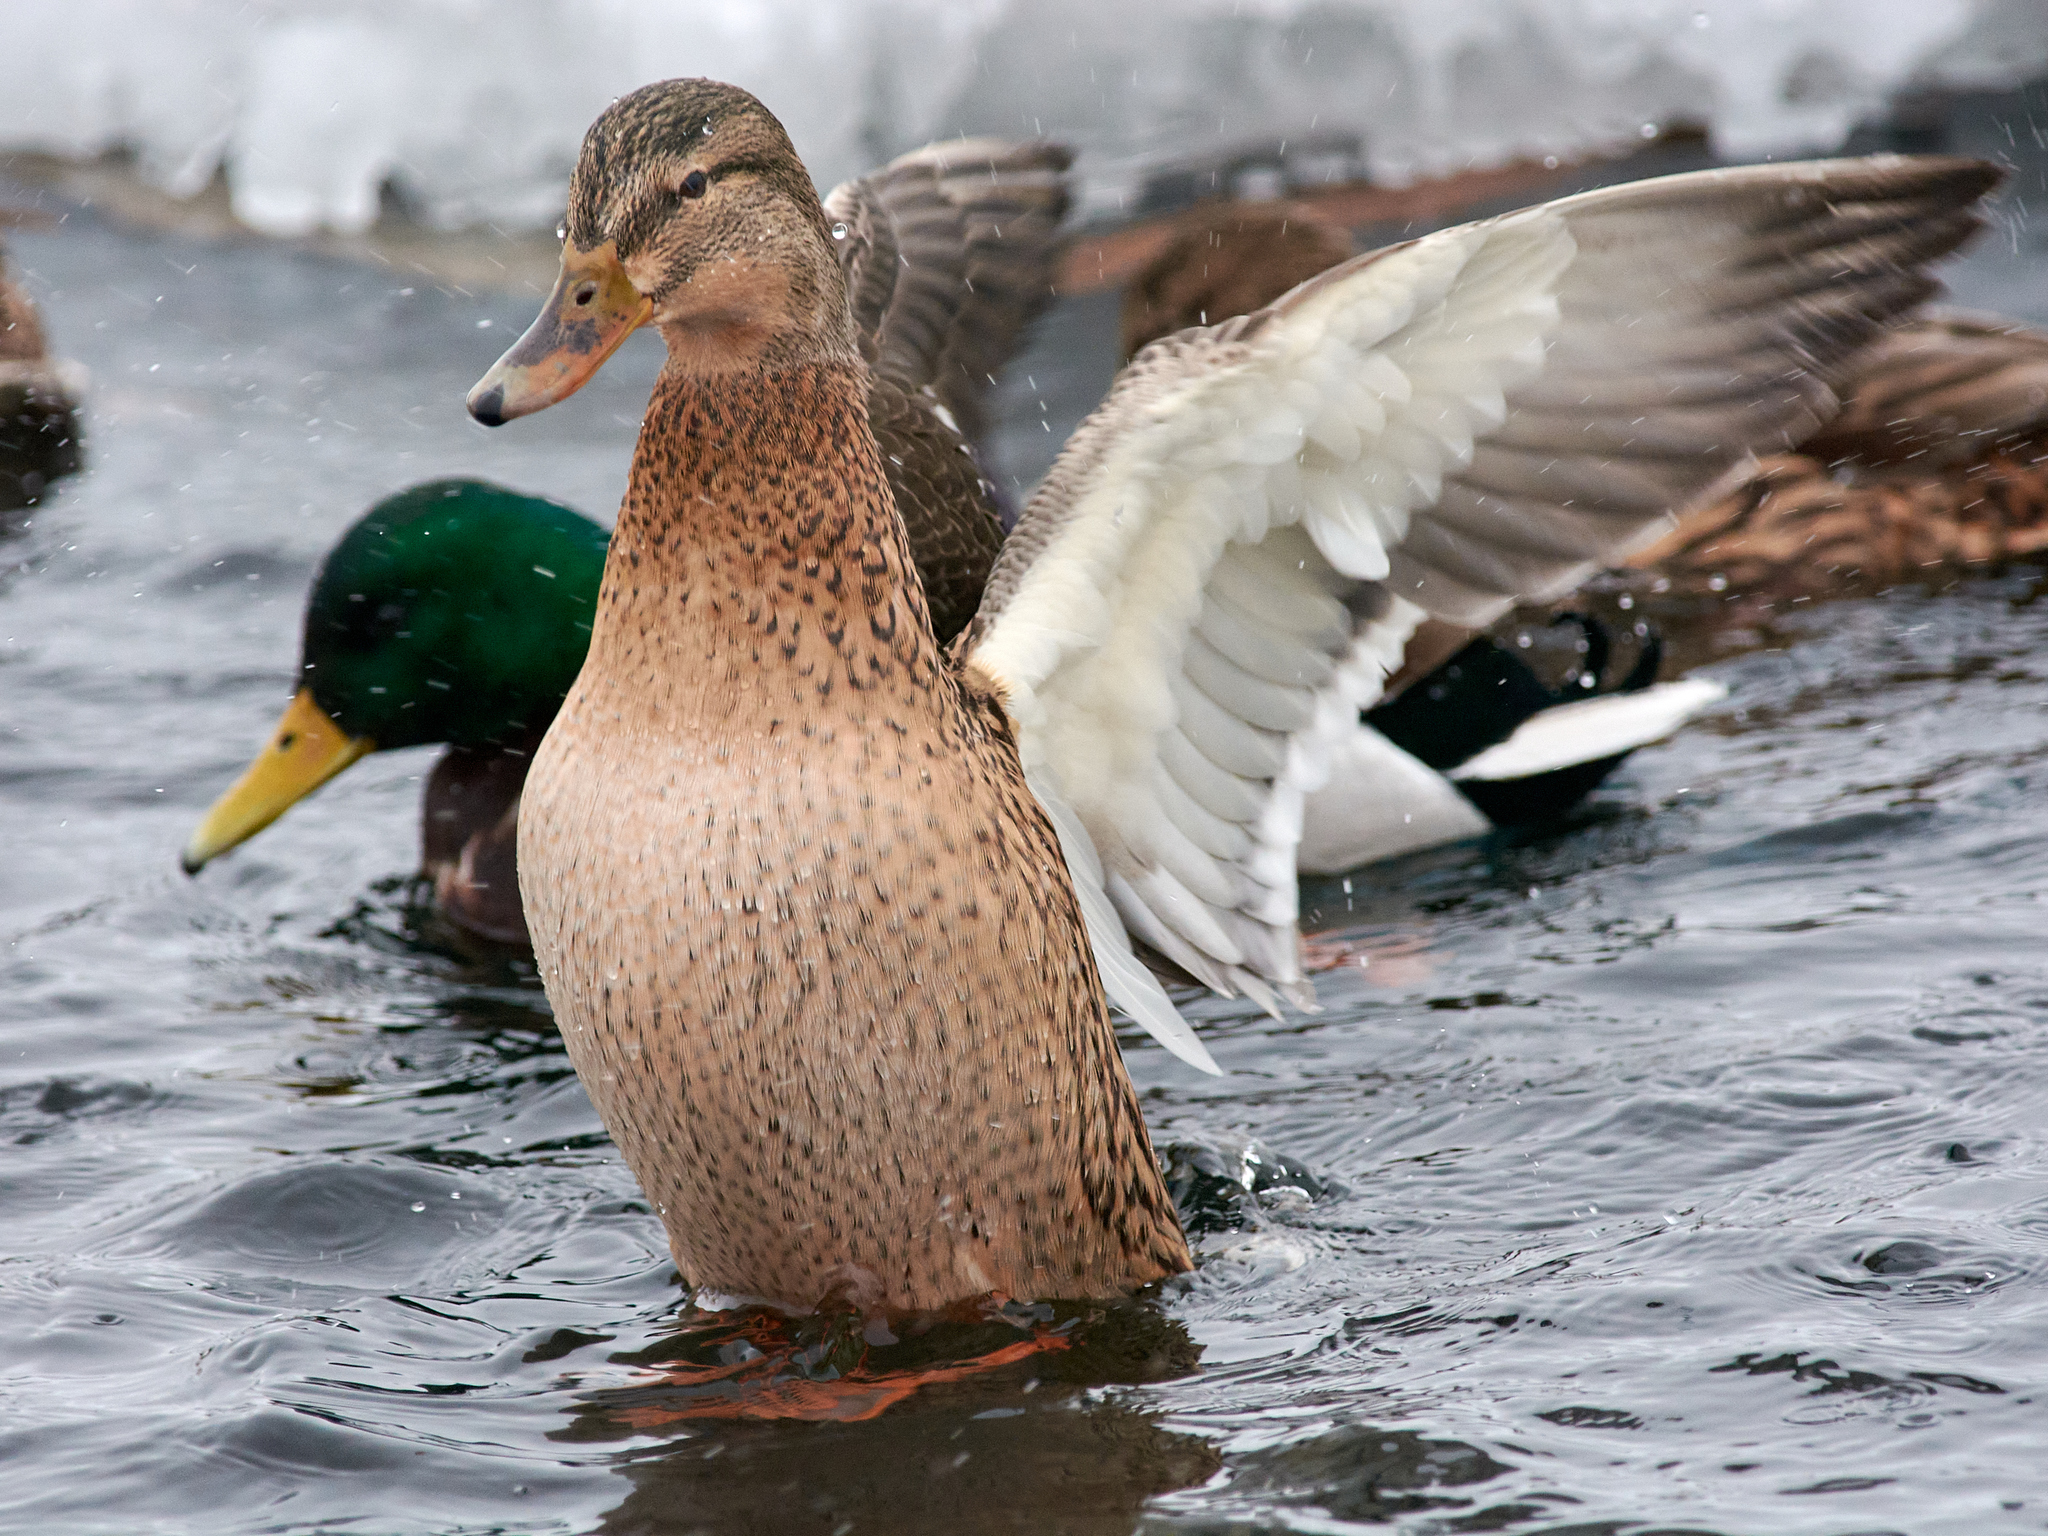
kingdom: Animalia
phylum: Chordata
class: Aves
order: Anseriformes
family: Anatidae
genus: Anas
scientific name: Anas platyrhynchos
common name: Mallard
